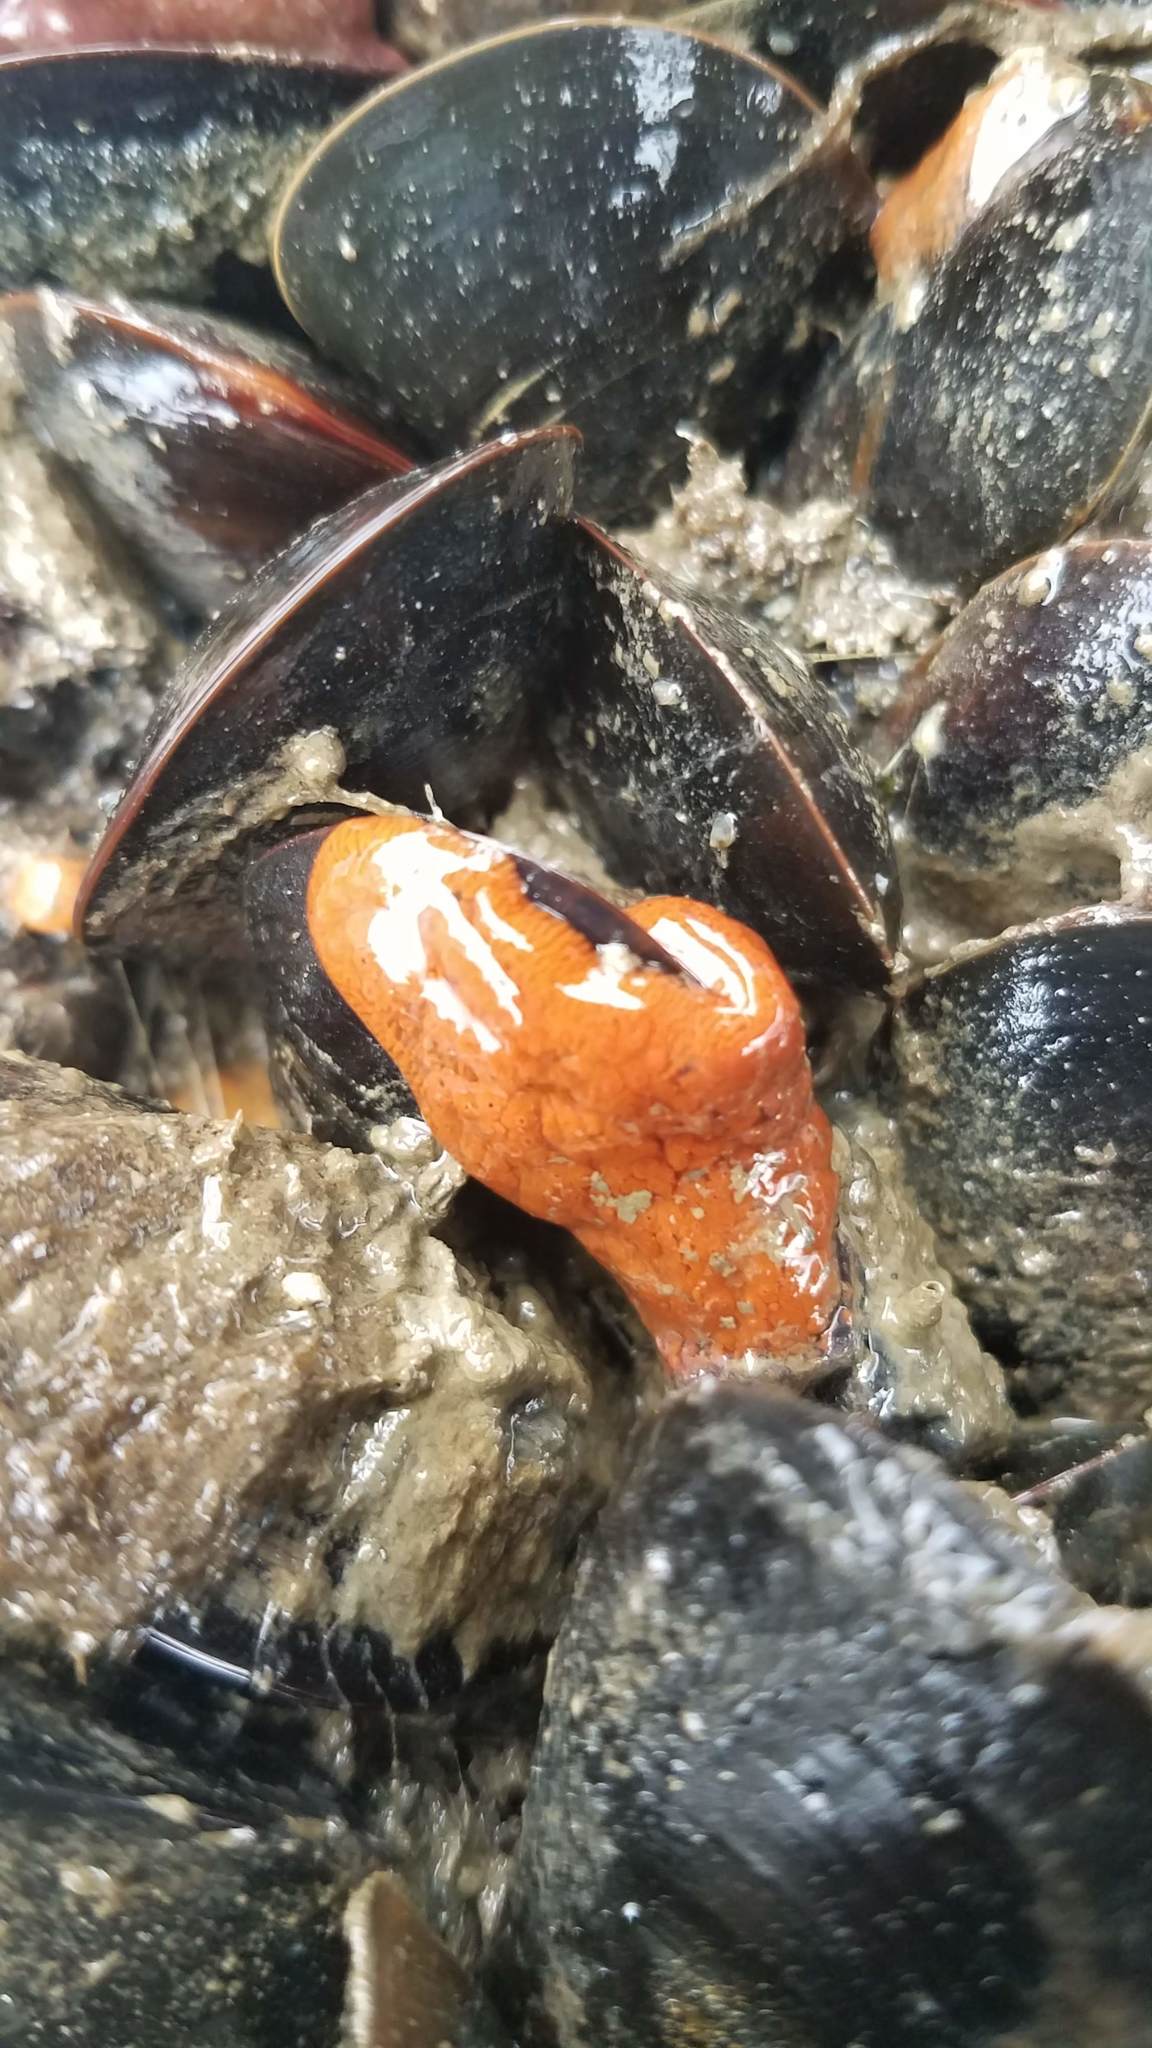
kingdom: Animalia
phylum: Chordata
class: Ascidiacea
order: Stolidobranchia
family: Styelidae
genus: Botrylloides
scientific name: Botrylloides violaceus
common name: Colonial sea squirt
